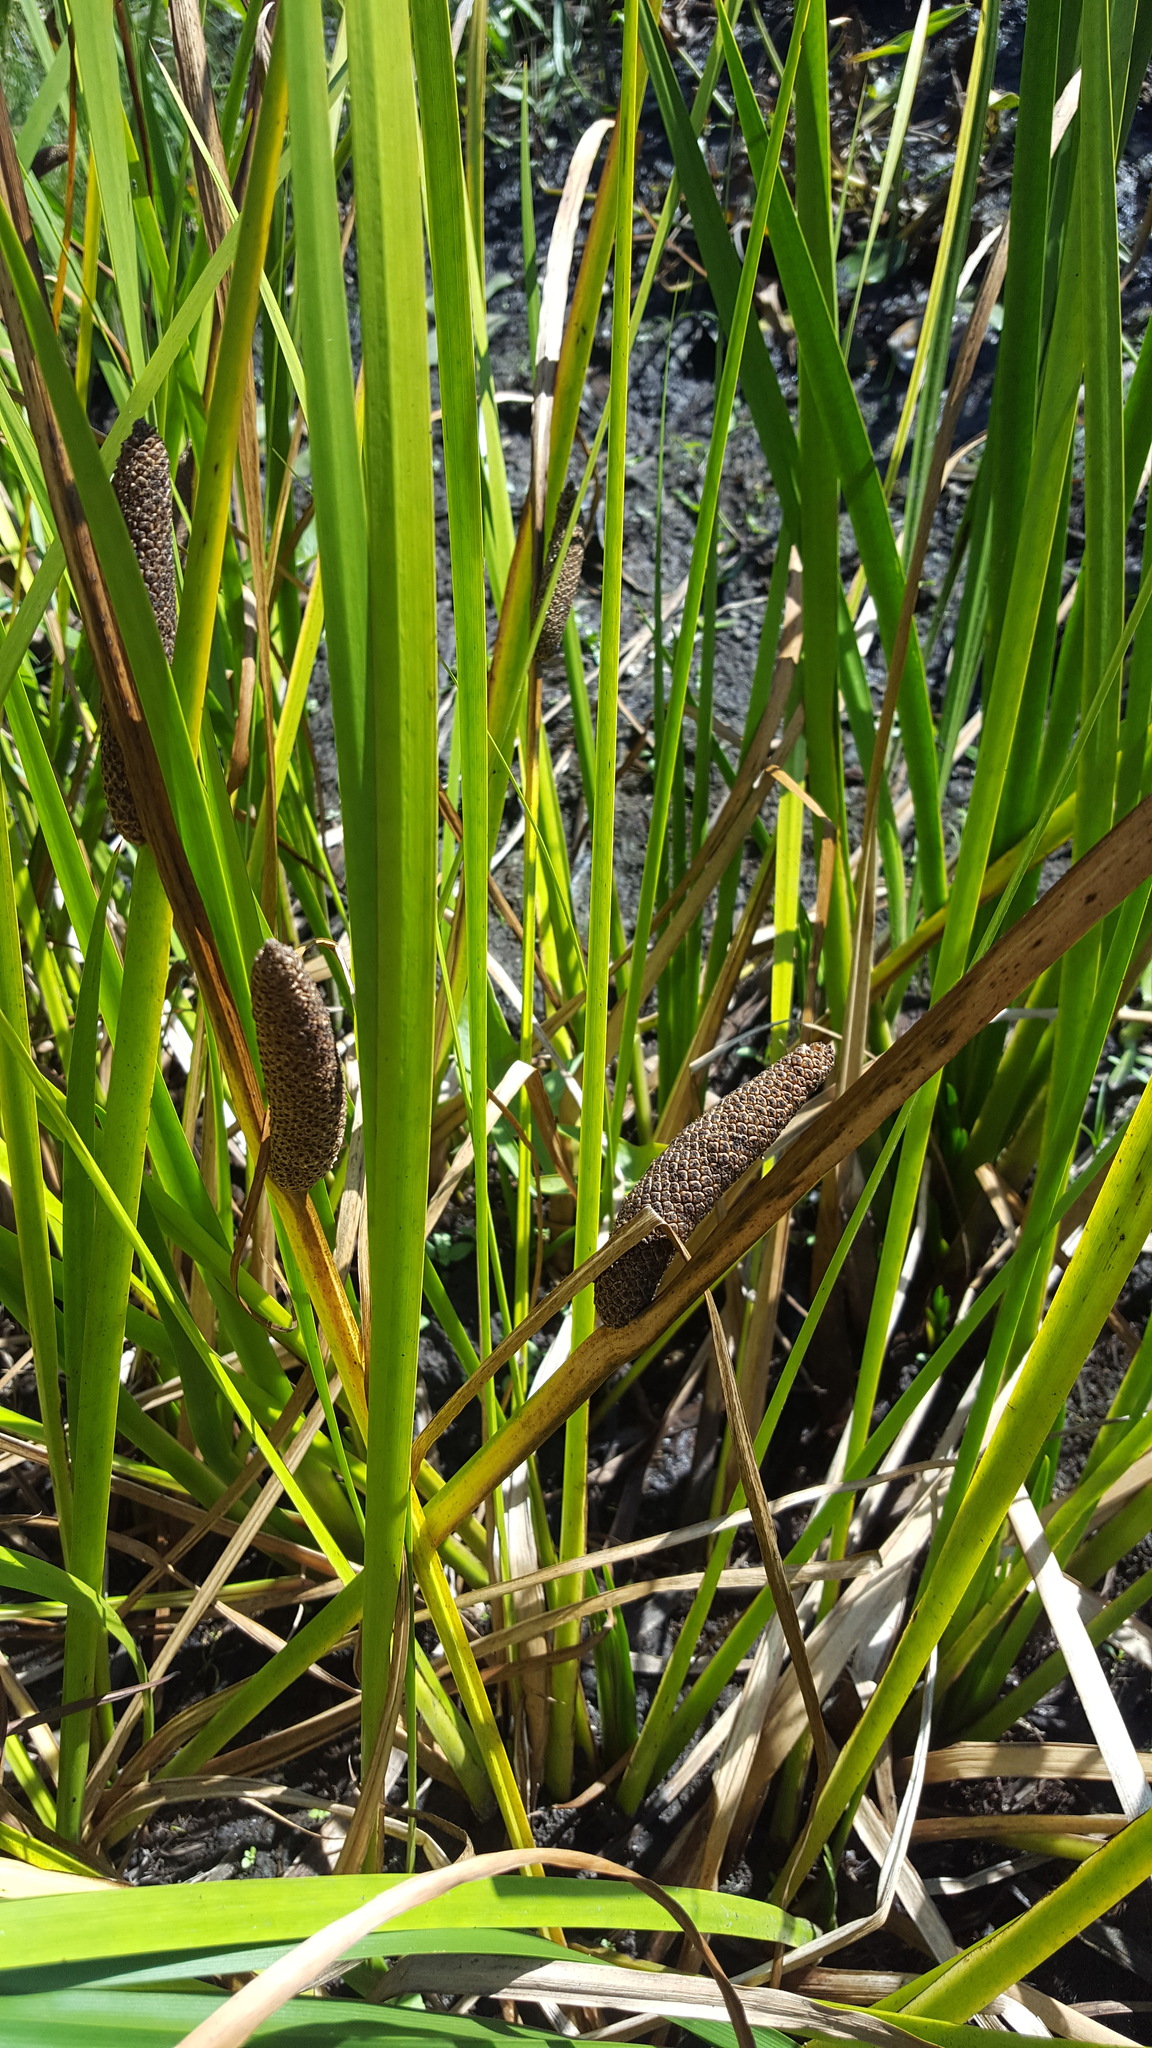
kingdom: Plantae
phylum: Tracheophyta
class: Liliopsida
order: Acorales
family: Acoraceae
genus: Acorus
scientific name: Acorus calamus
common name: Sweet-flag
